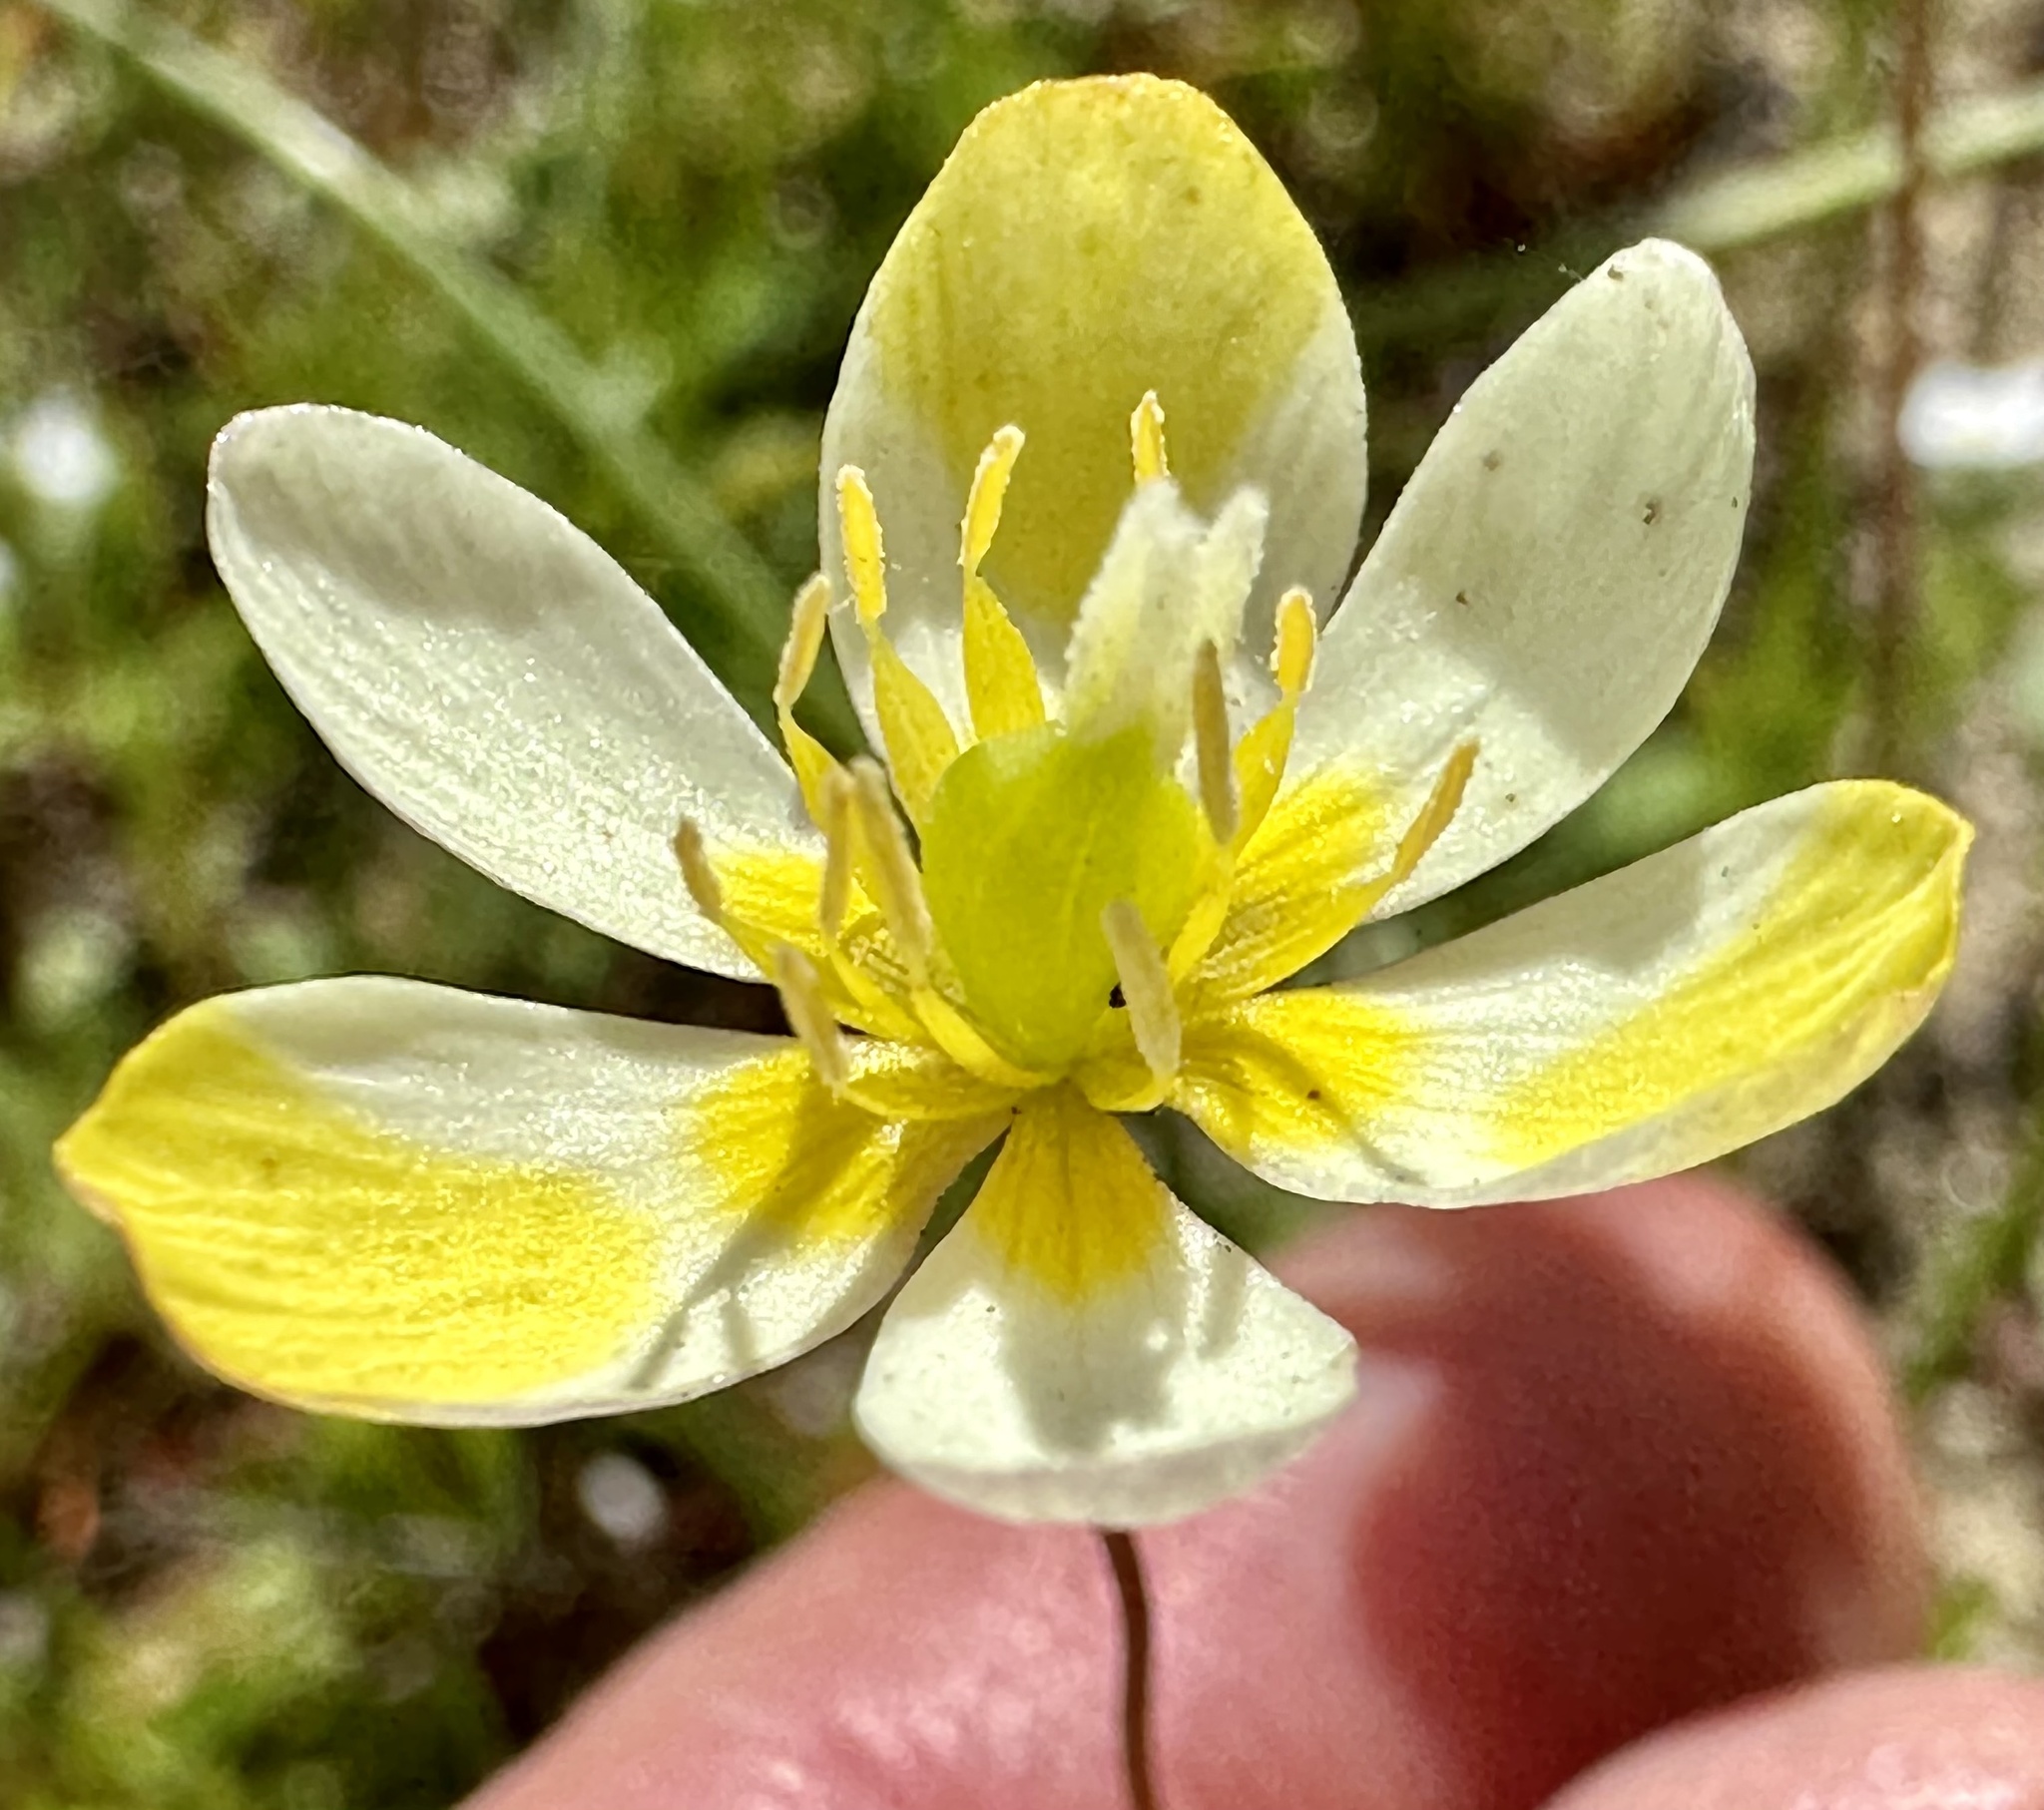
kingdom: Plantae
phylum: Tracheophyta
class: Magnoliopsida
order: Ranunculales
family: Papaveraceae
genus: Platystigma
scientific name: Platystigma lineare
